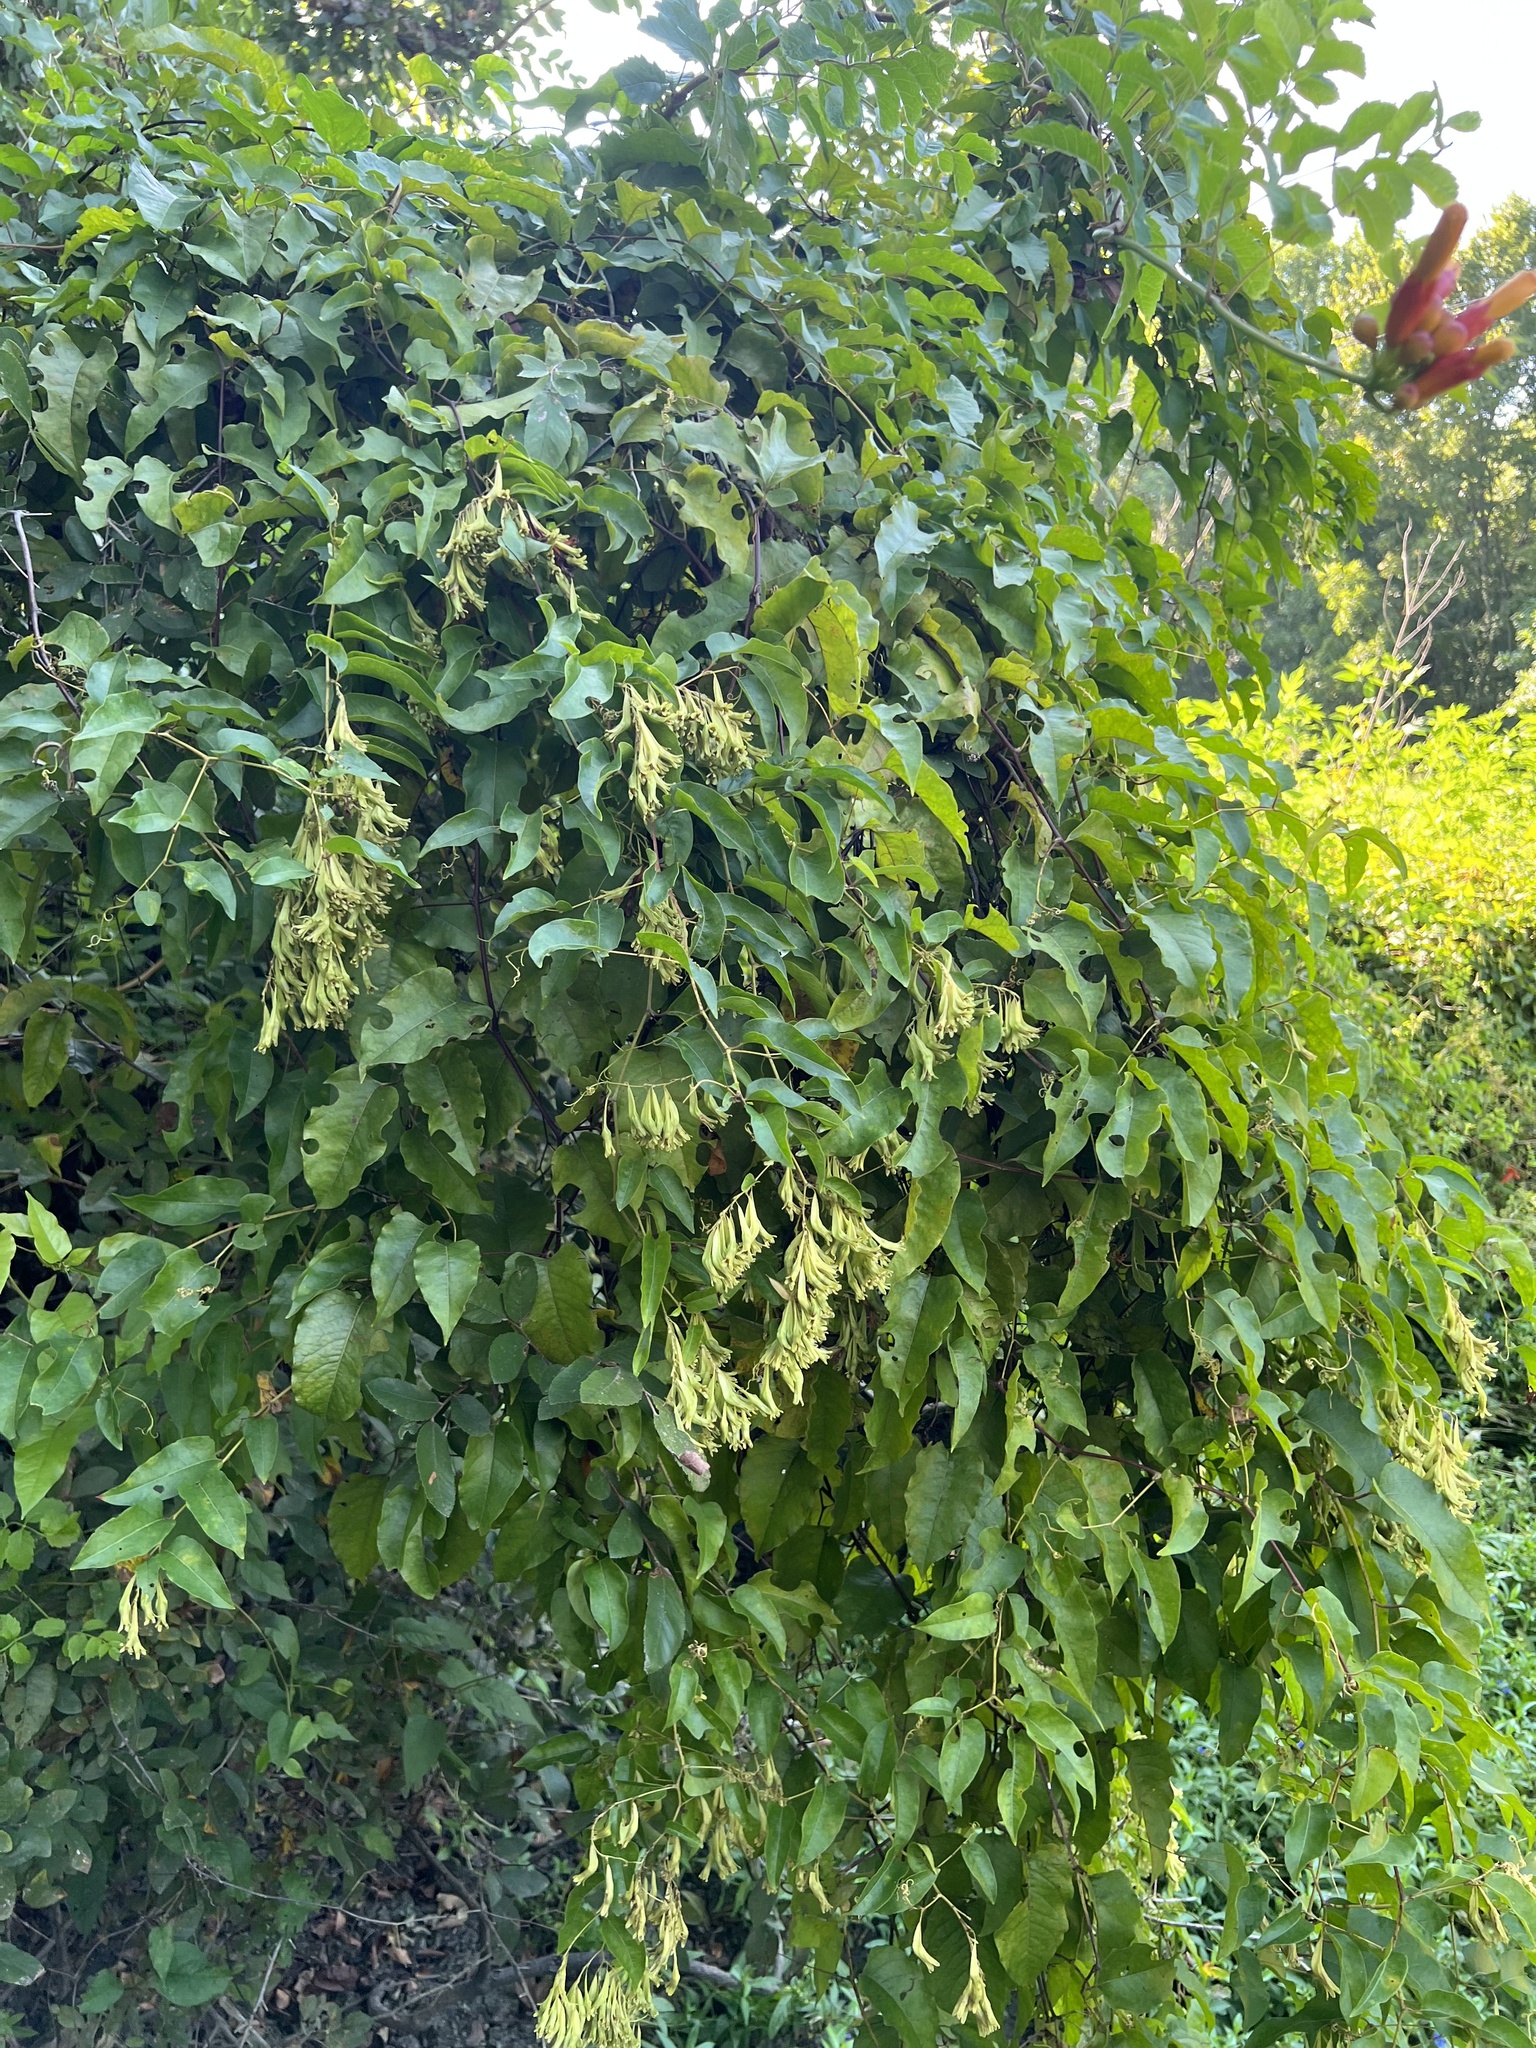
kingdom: Plantae
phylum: Tracheophyta
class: Magnoliopsida
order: Caryophyllales
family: Polygonaceae
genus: Brunnichia
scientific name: Brunnichia ovata
